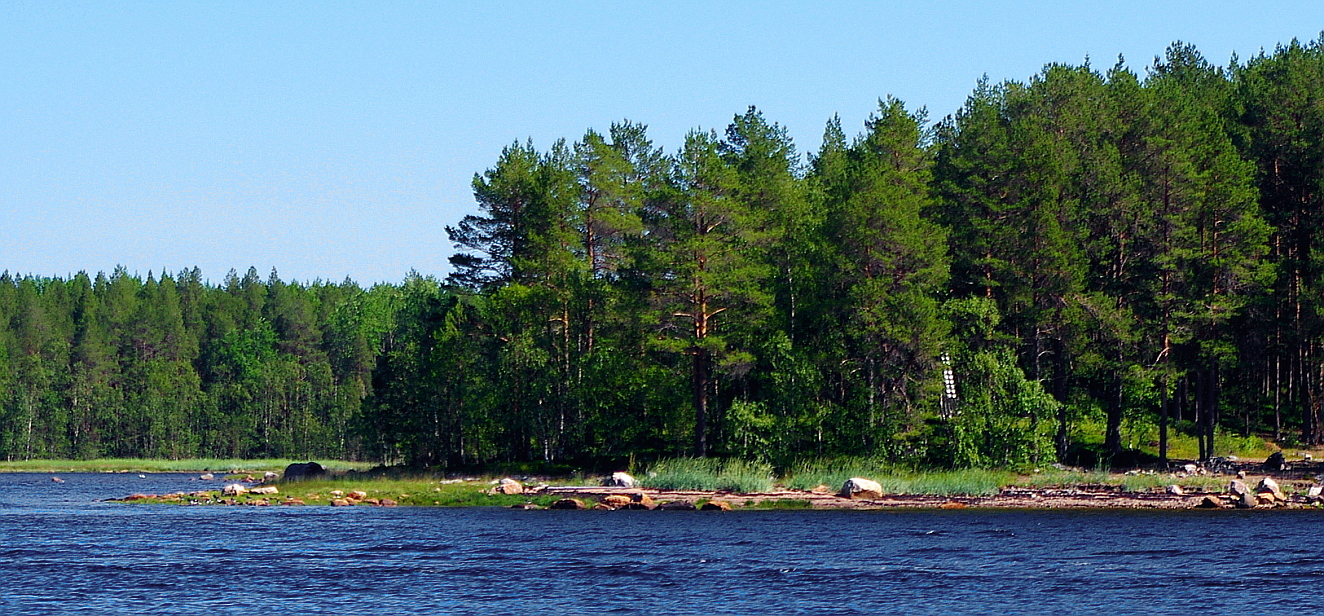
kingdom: Plantae
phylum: Tracheophyta
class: Pinopsida
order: Pinales
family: Pinaceae
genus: Pinus
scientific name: Pinus sylvestris
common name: Scots pine
